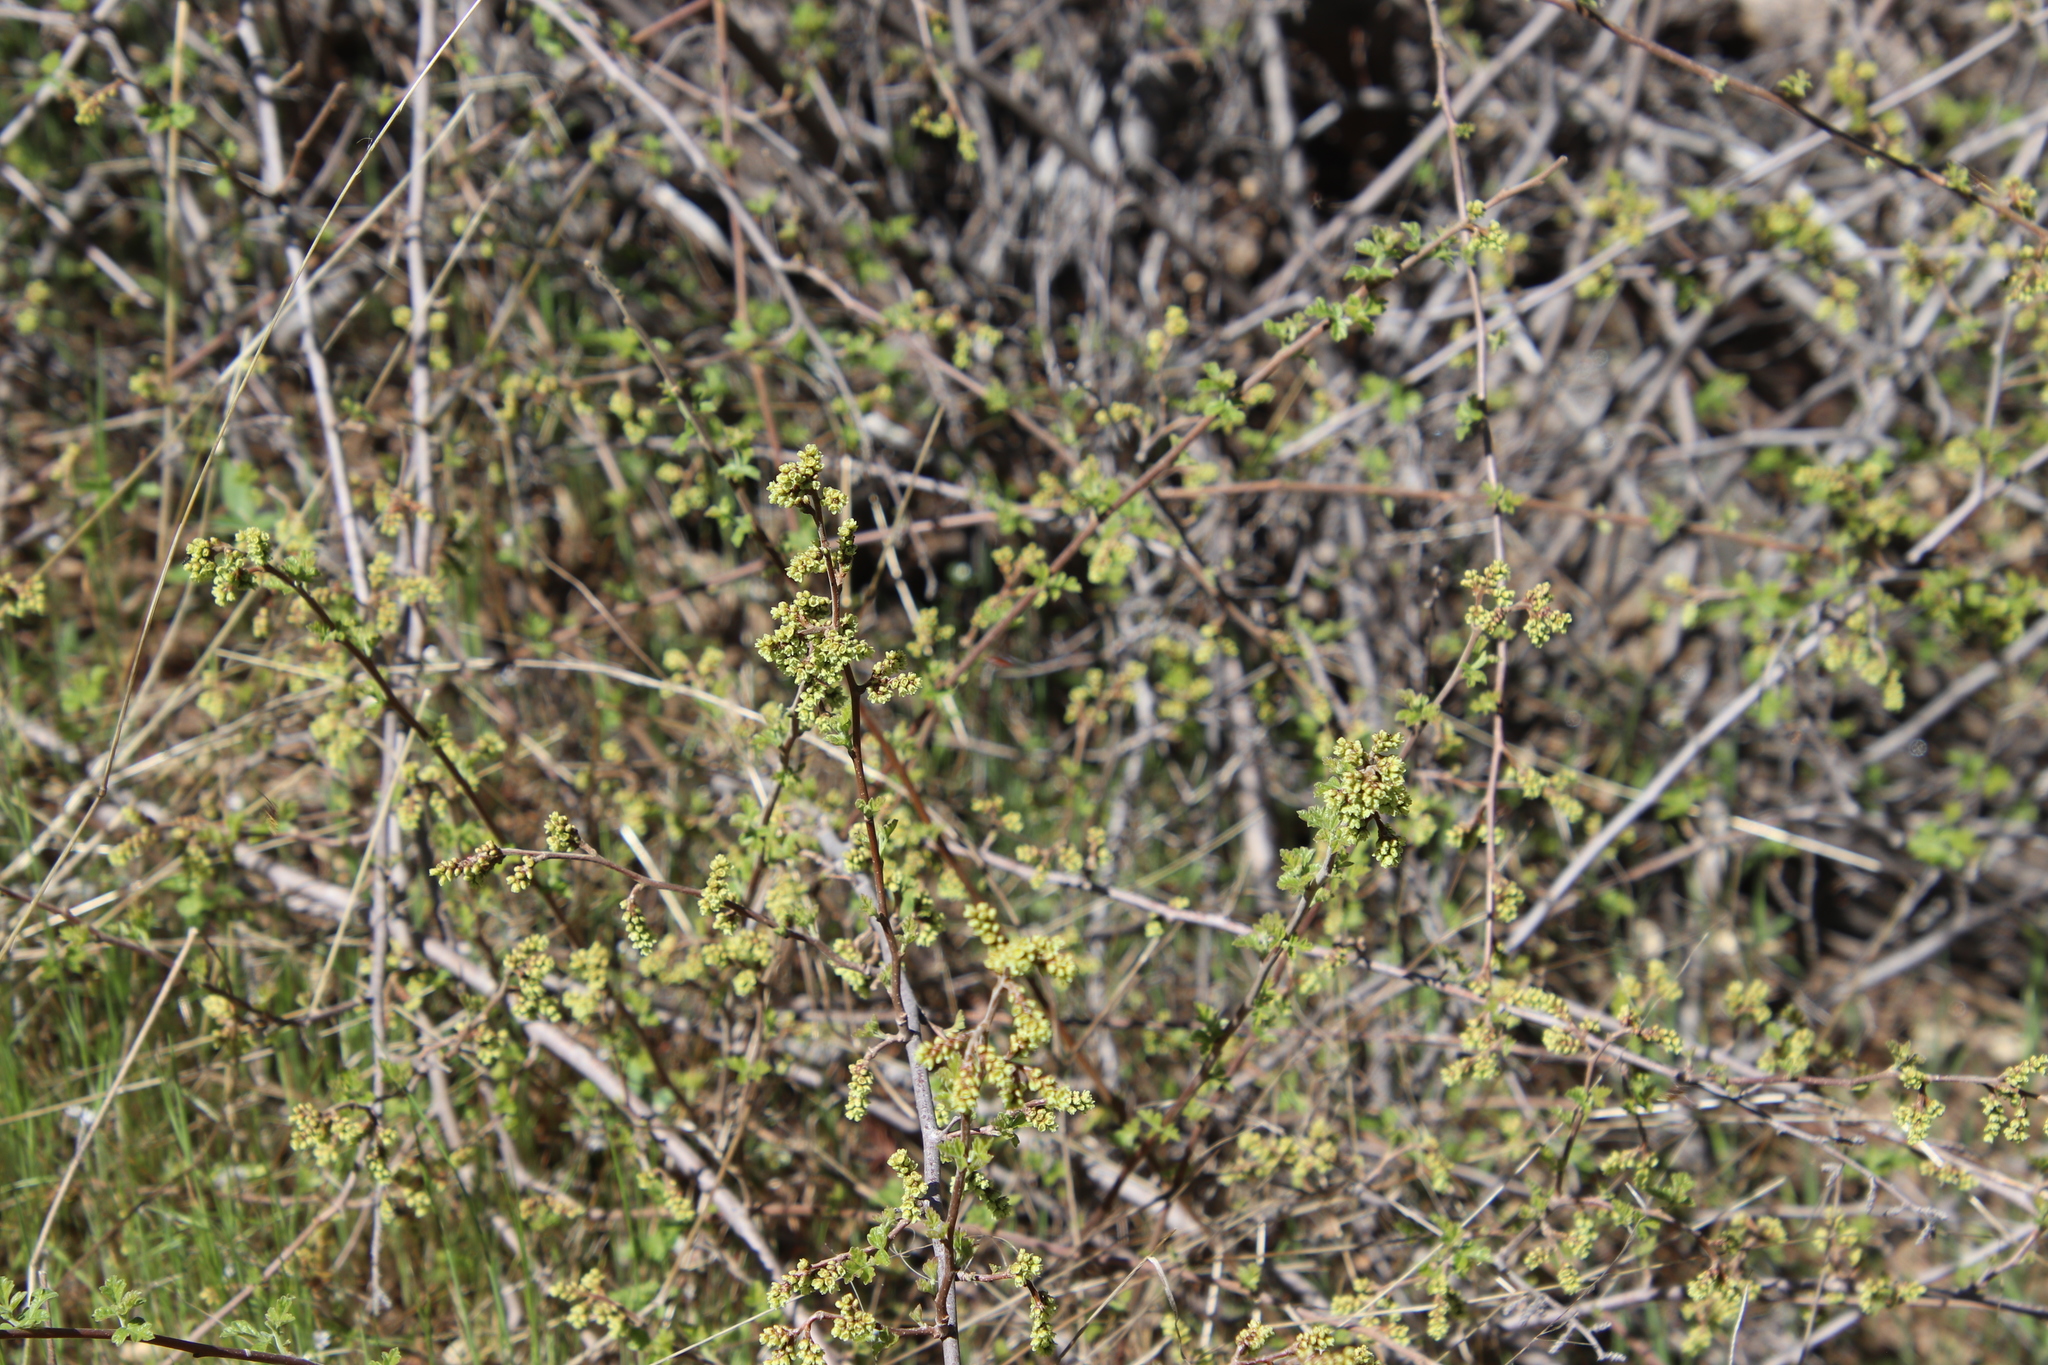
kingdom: Plantae
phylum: Tracheophyta
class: Magnoliopsida
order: Sapindales
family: Anacardiaceae
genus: Rhus
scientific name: Rhus aromatica
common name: Aromatic sumac
